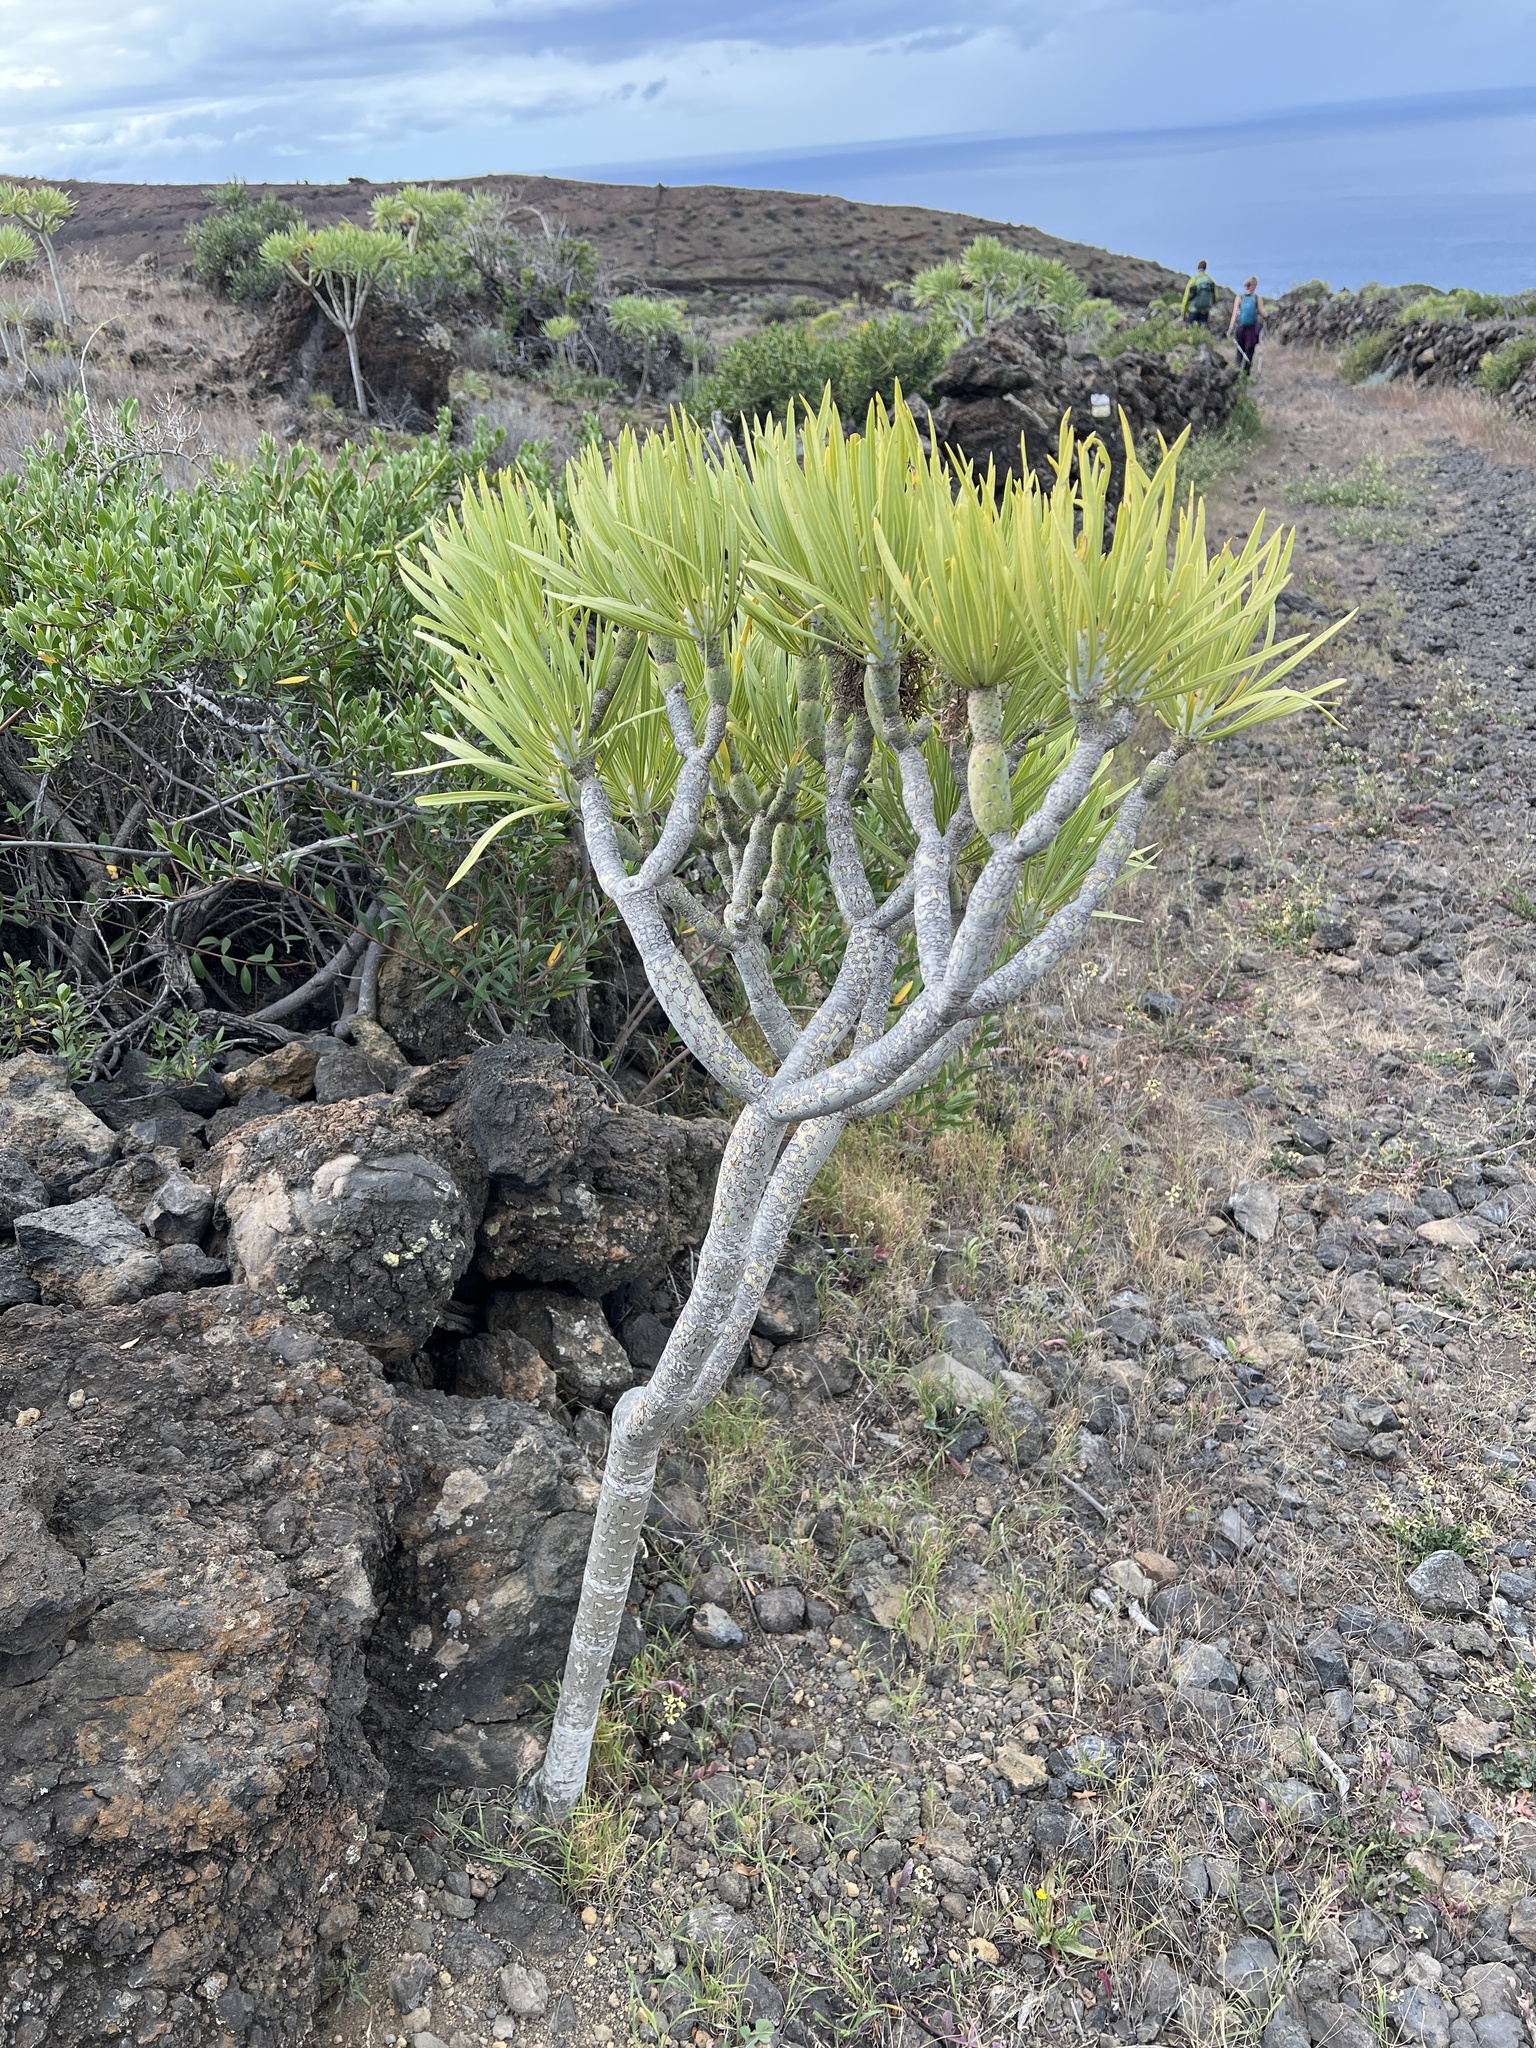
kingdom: Plantae
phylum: Tracheophyta
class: Magnoliopsida
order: Asterales
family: Asteraceae
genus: Kleinia
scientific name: Kleinia neriifolia
